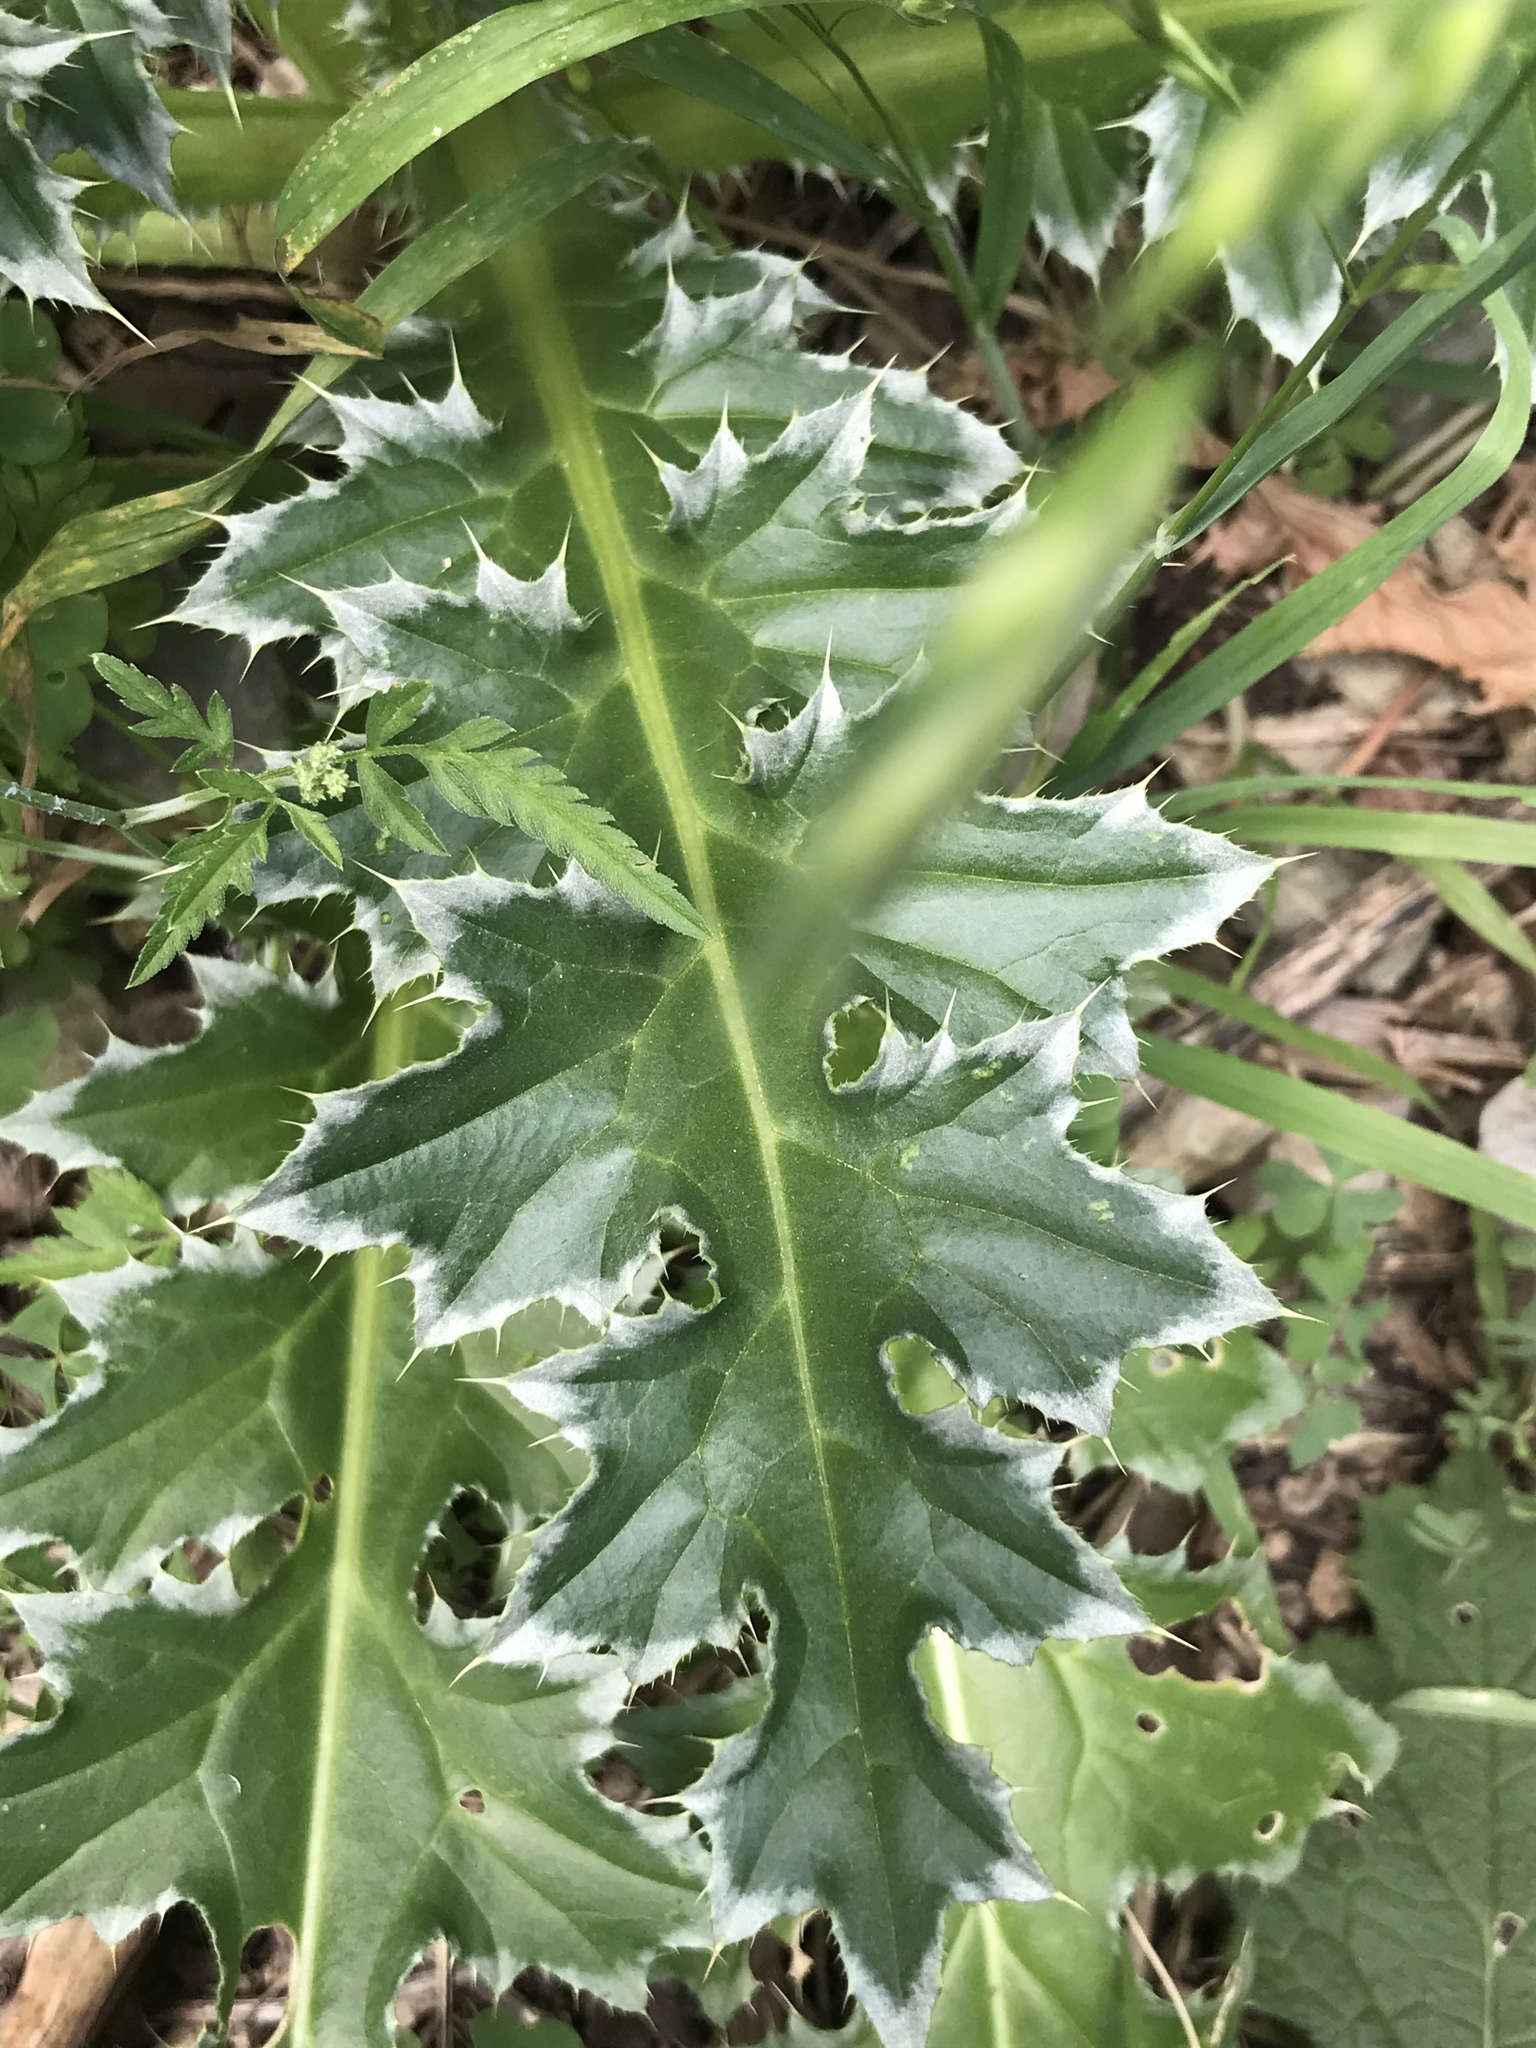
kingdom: Plantae
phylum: Tracheophyta
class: Magnoliopsida
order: Asterales
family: Asteraceae
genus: Carduus
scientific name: Carduus nutans
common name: Musk thistle
